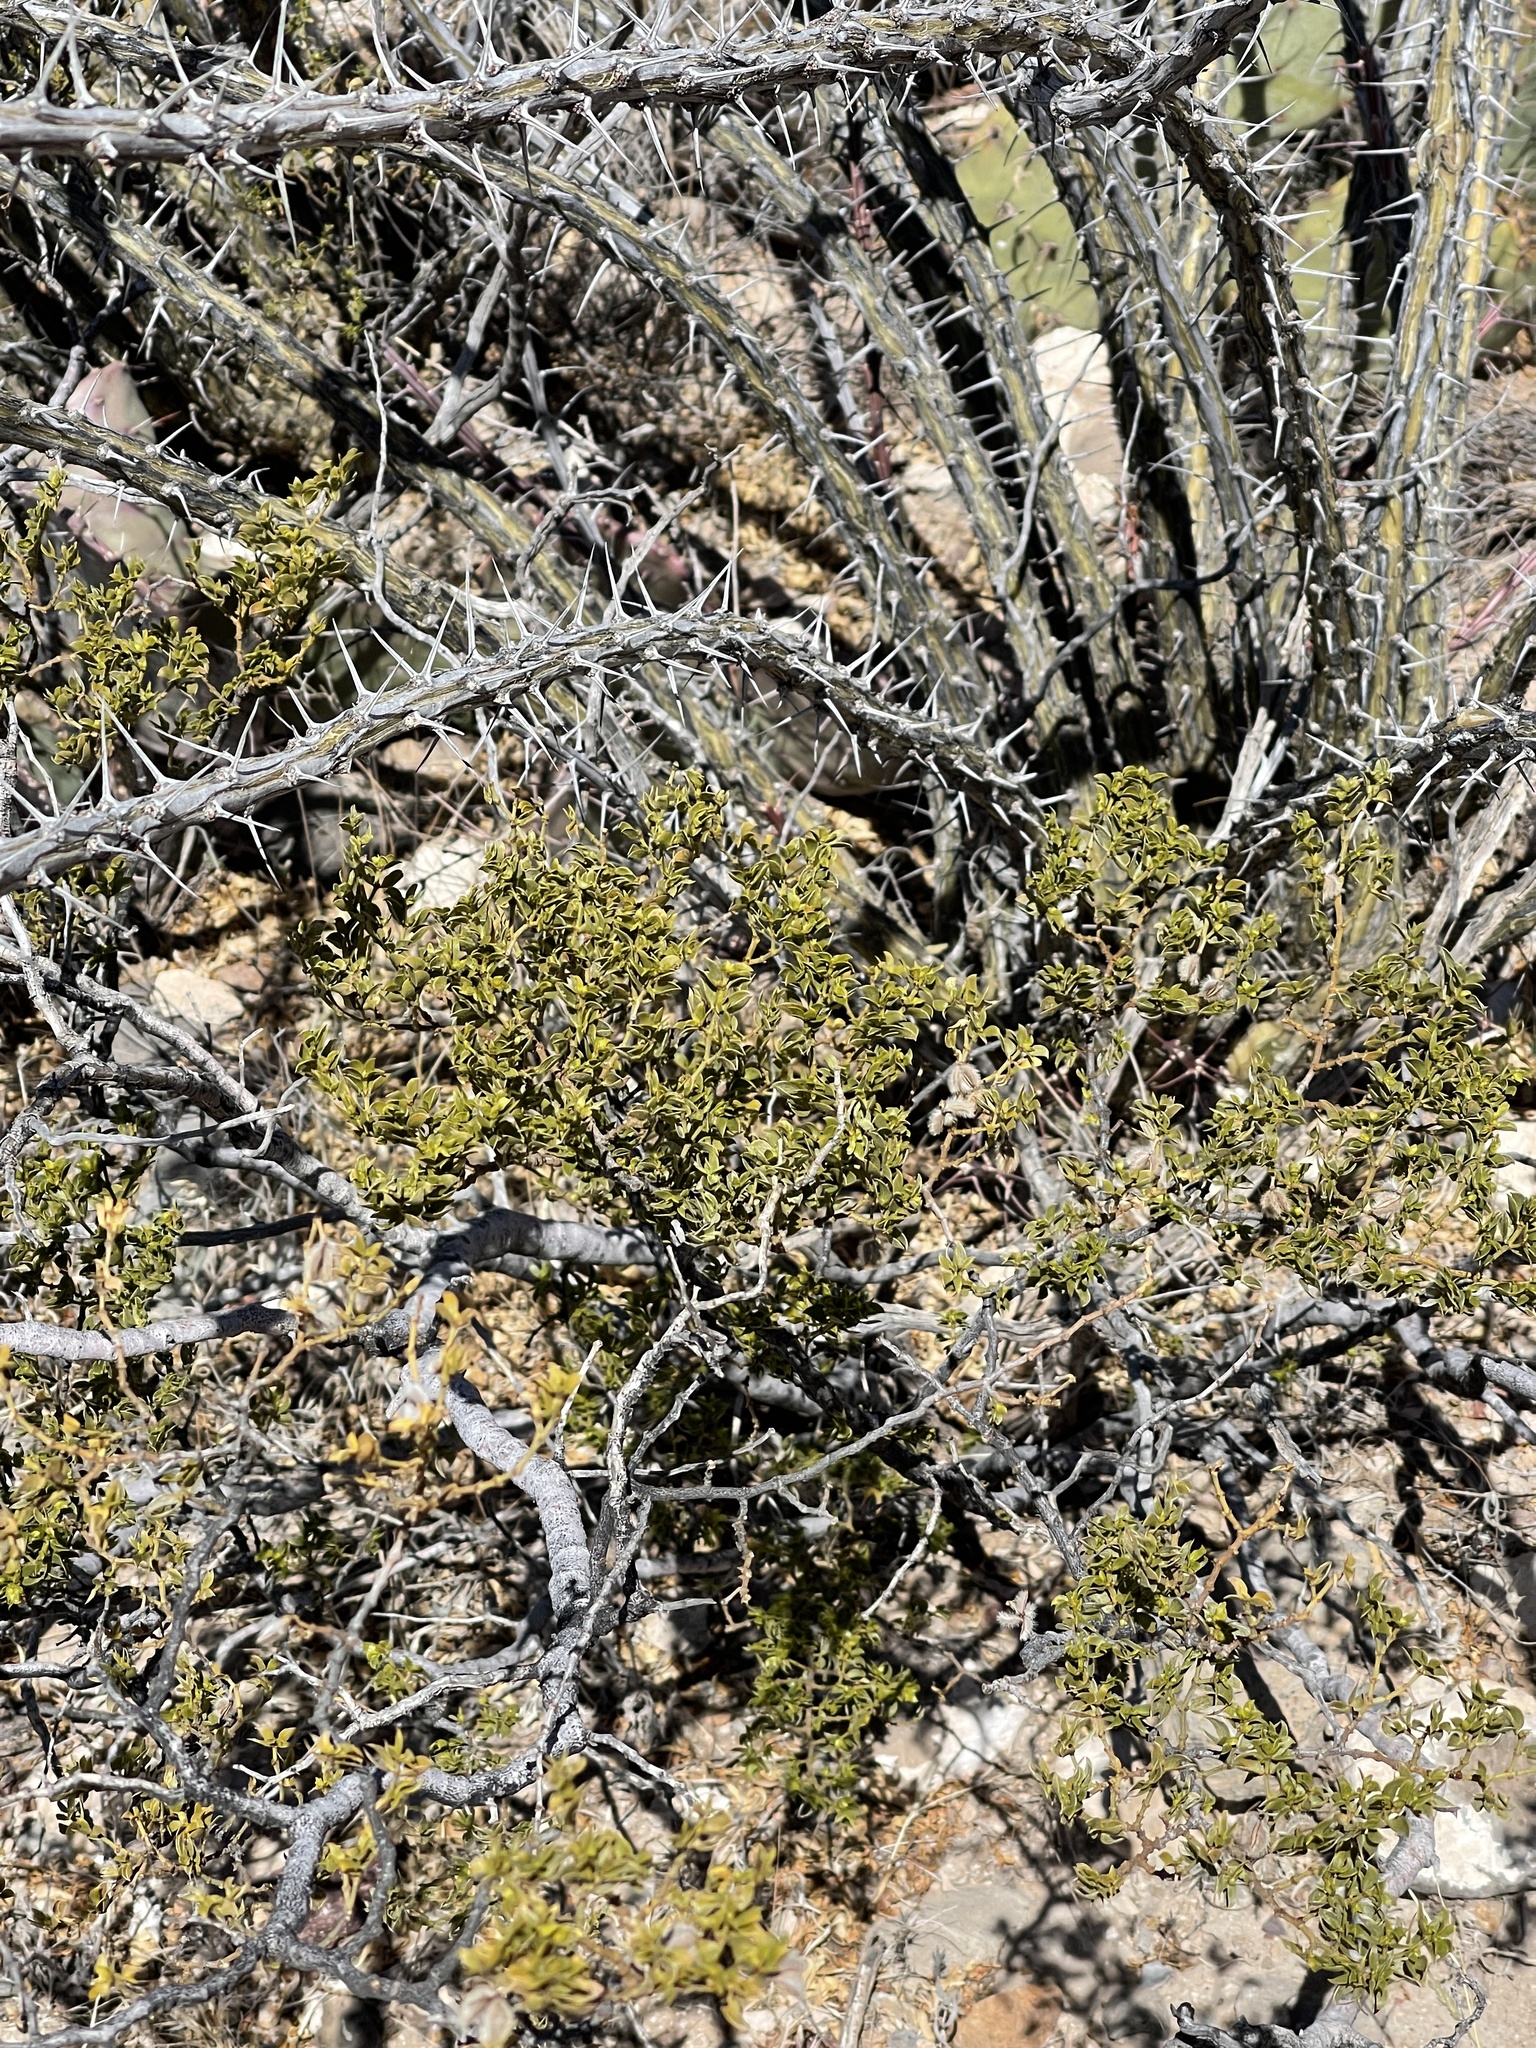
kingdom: Plantae
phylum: Tracheophyta
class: Magnoliopsida
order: Zygophyllales
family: Zygophyllaceae
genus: Larrea
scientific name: Larrea tridentata
